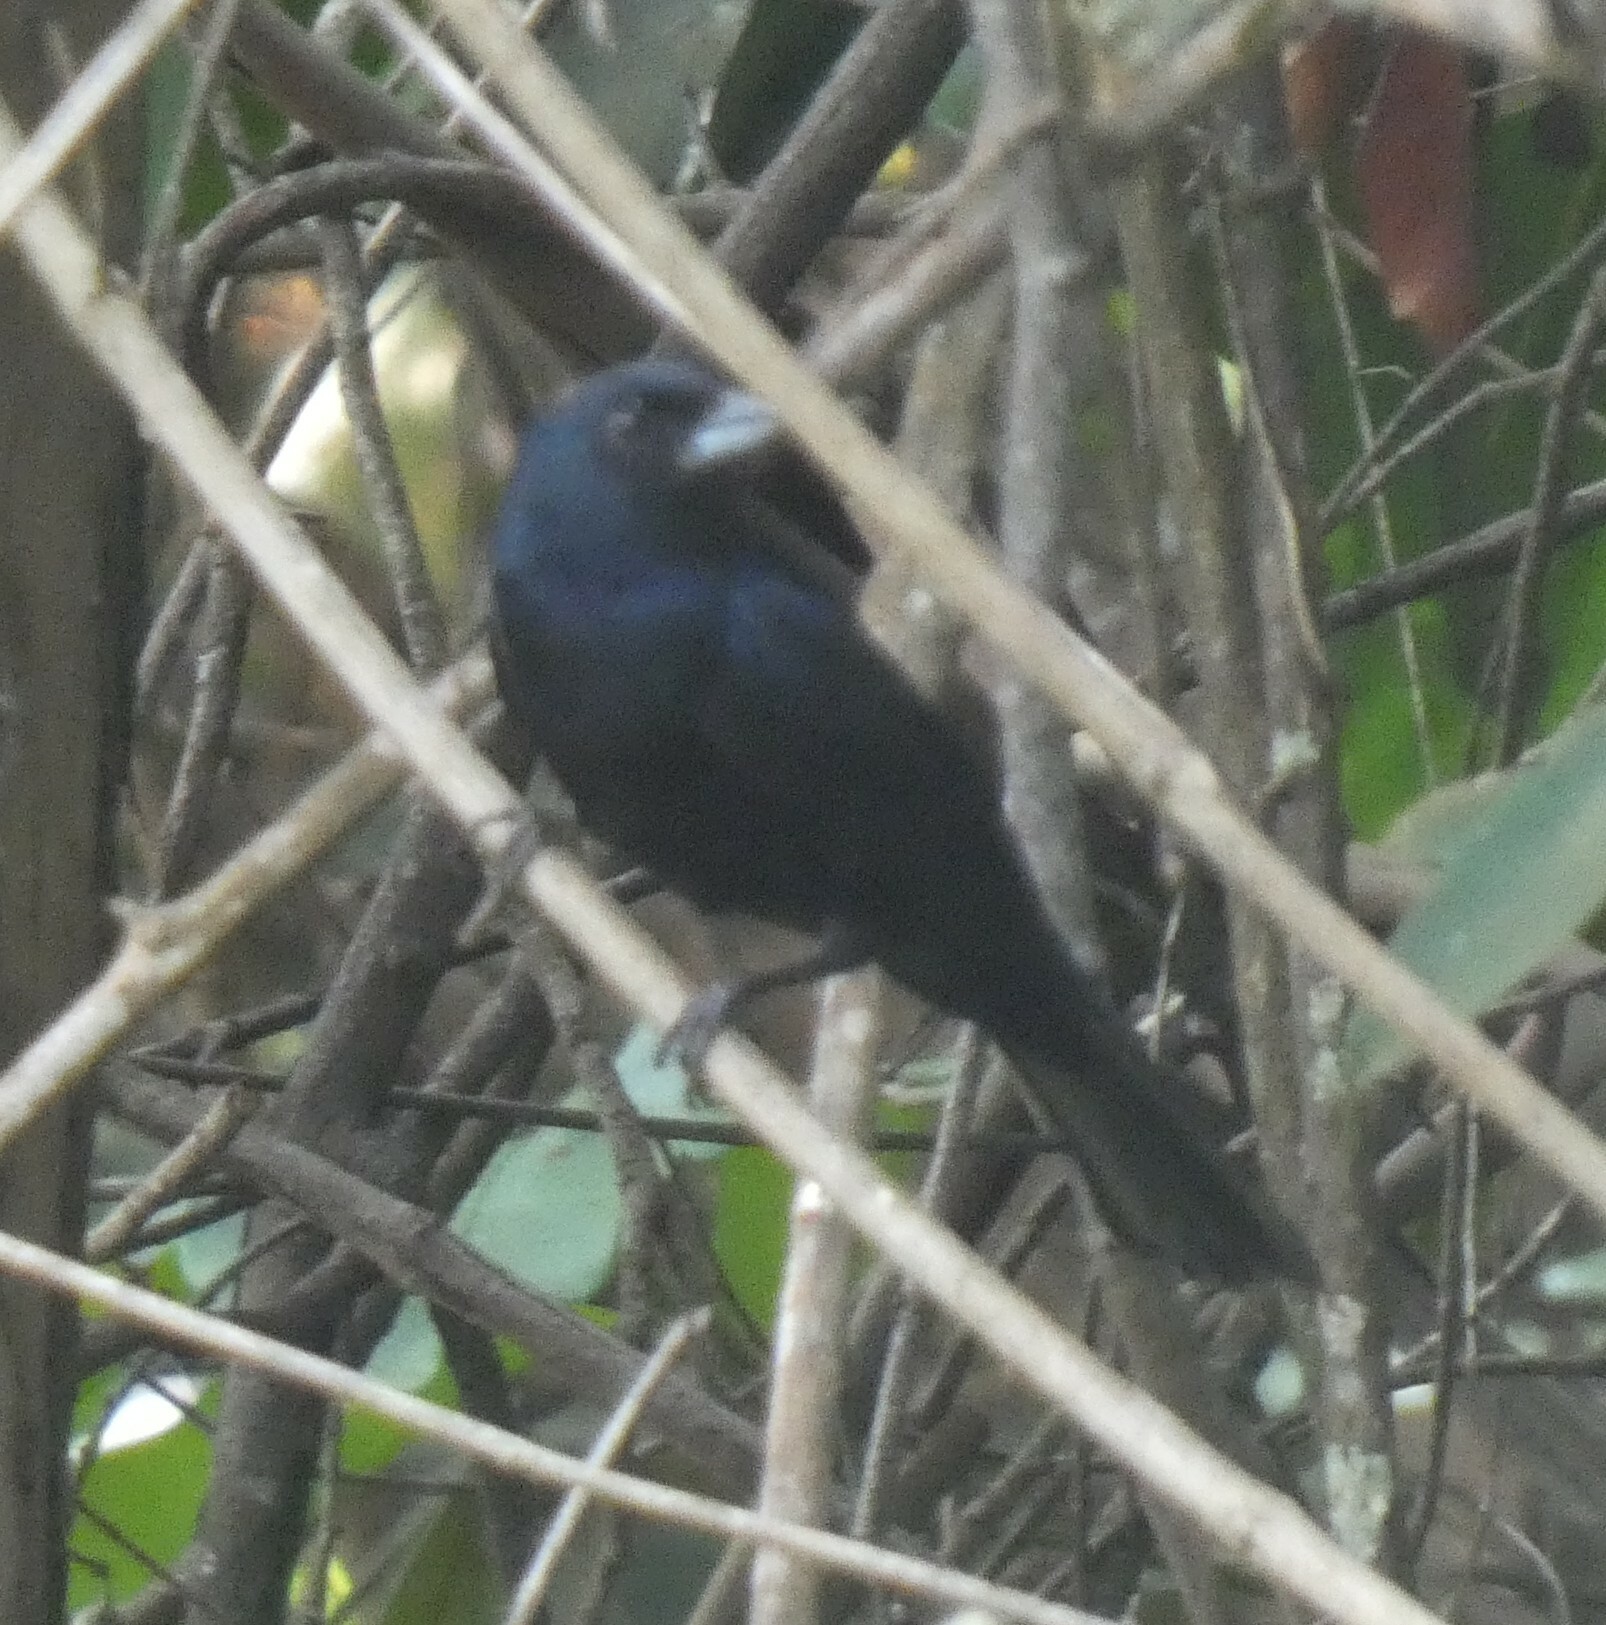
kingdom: Animalia
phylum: Chordata
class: Aves
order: Passeriformes
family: Thraupidae
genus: Tachyphonus
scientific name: Tachyphonus coronatus
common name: Ruby-crowned tanager
